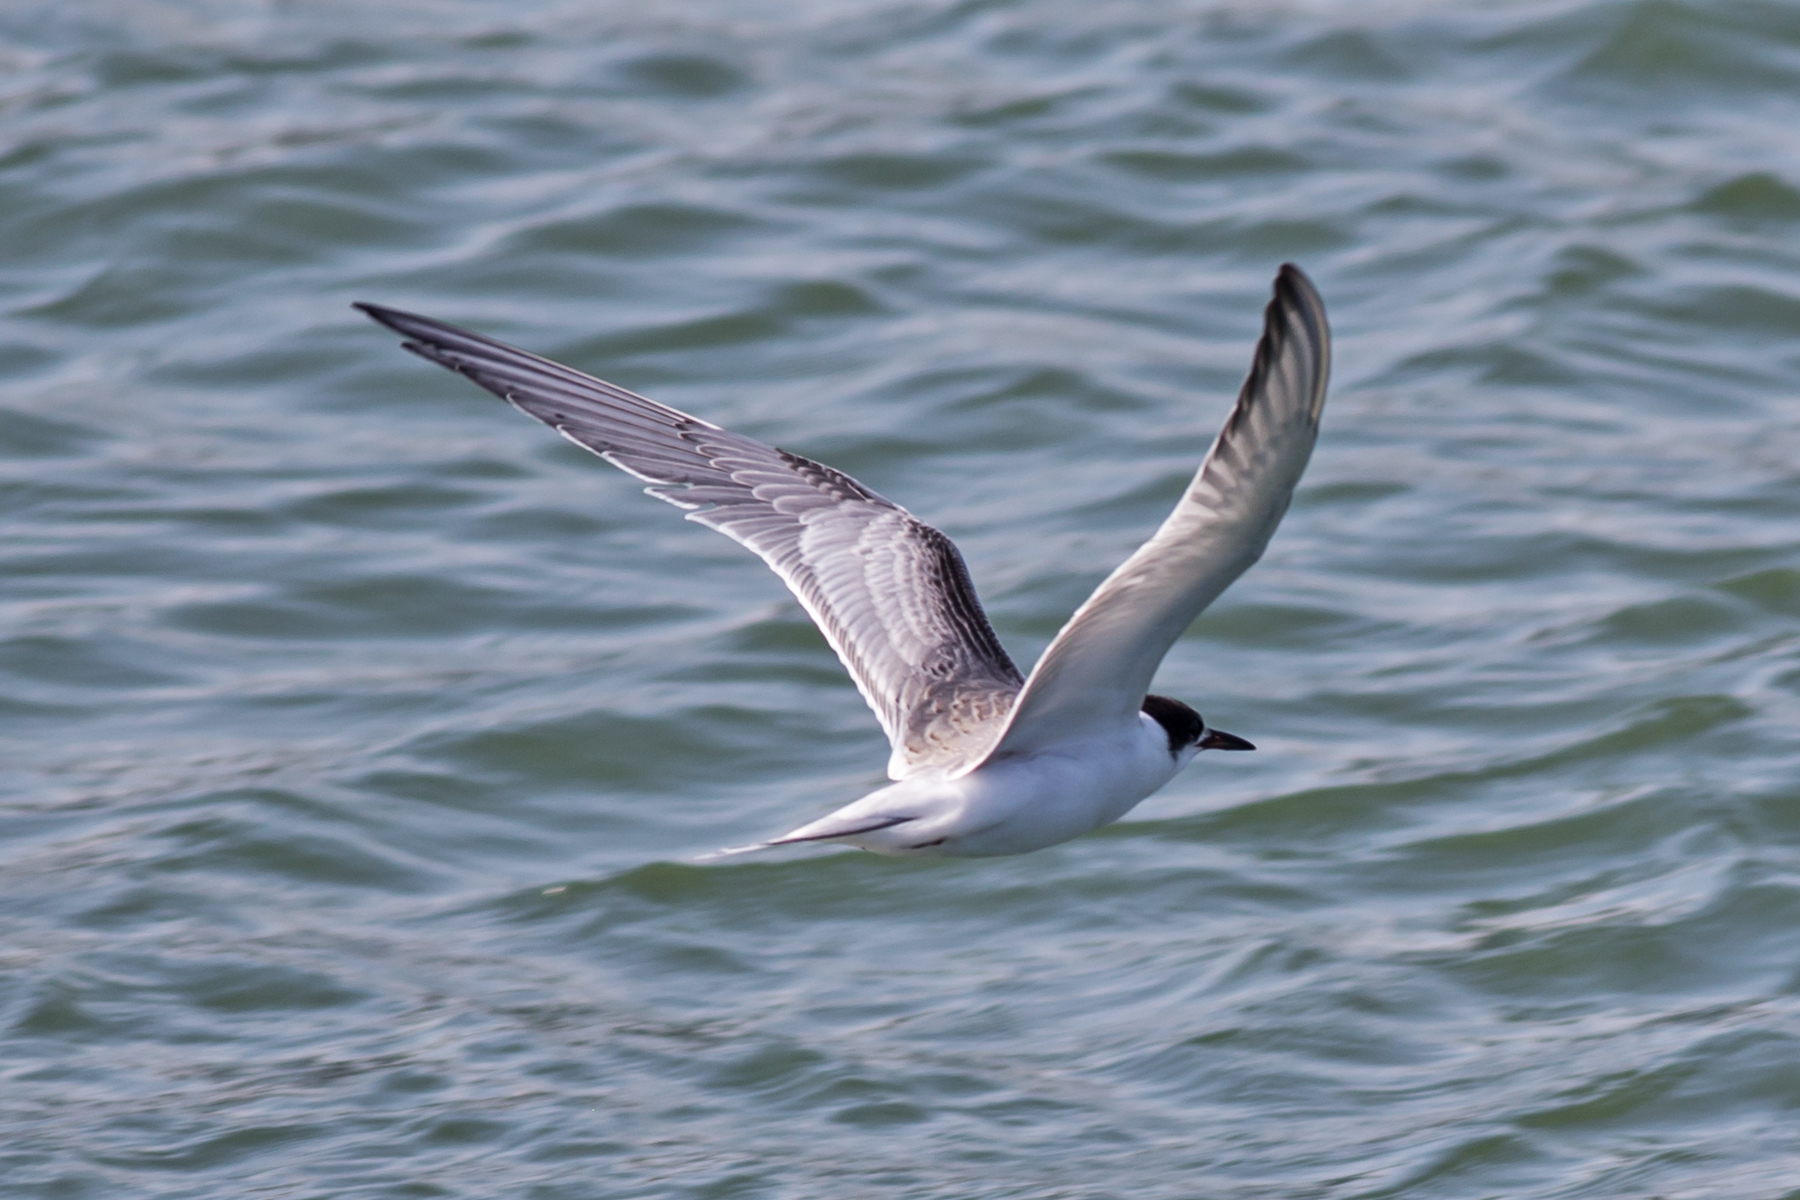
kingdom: Animalia
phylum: Chordata
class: Aves
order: Charadriiformes
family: Laridae
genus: Sterna
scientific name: Sterna hirundo
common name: Common tern
